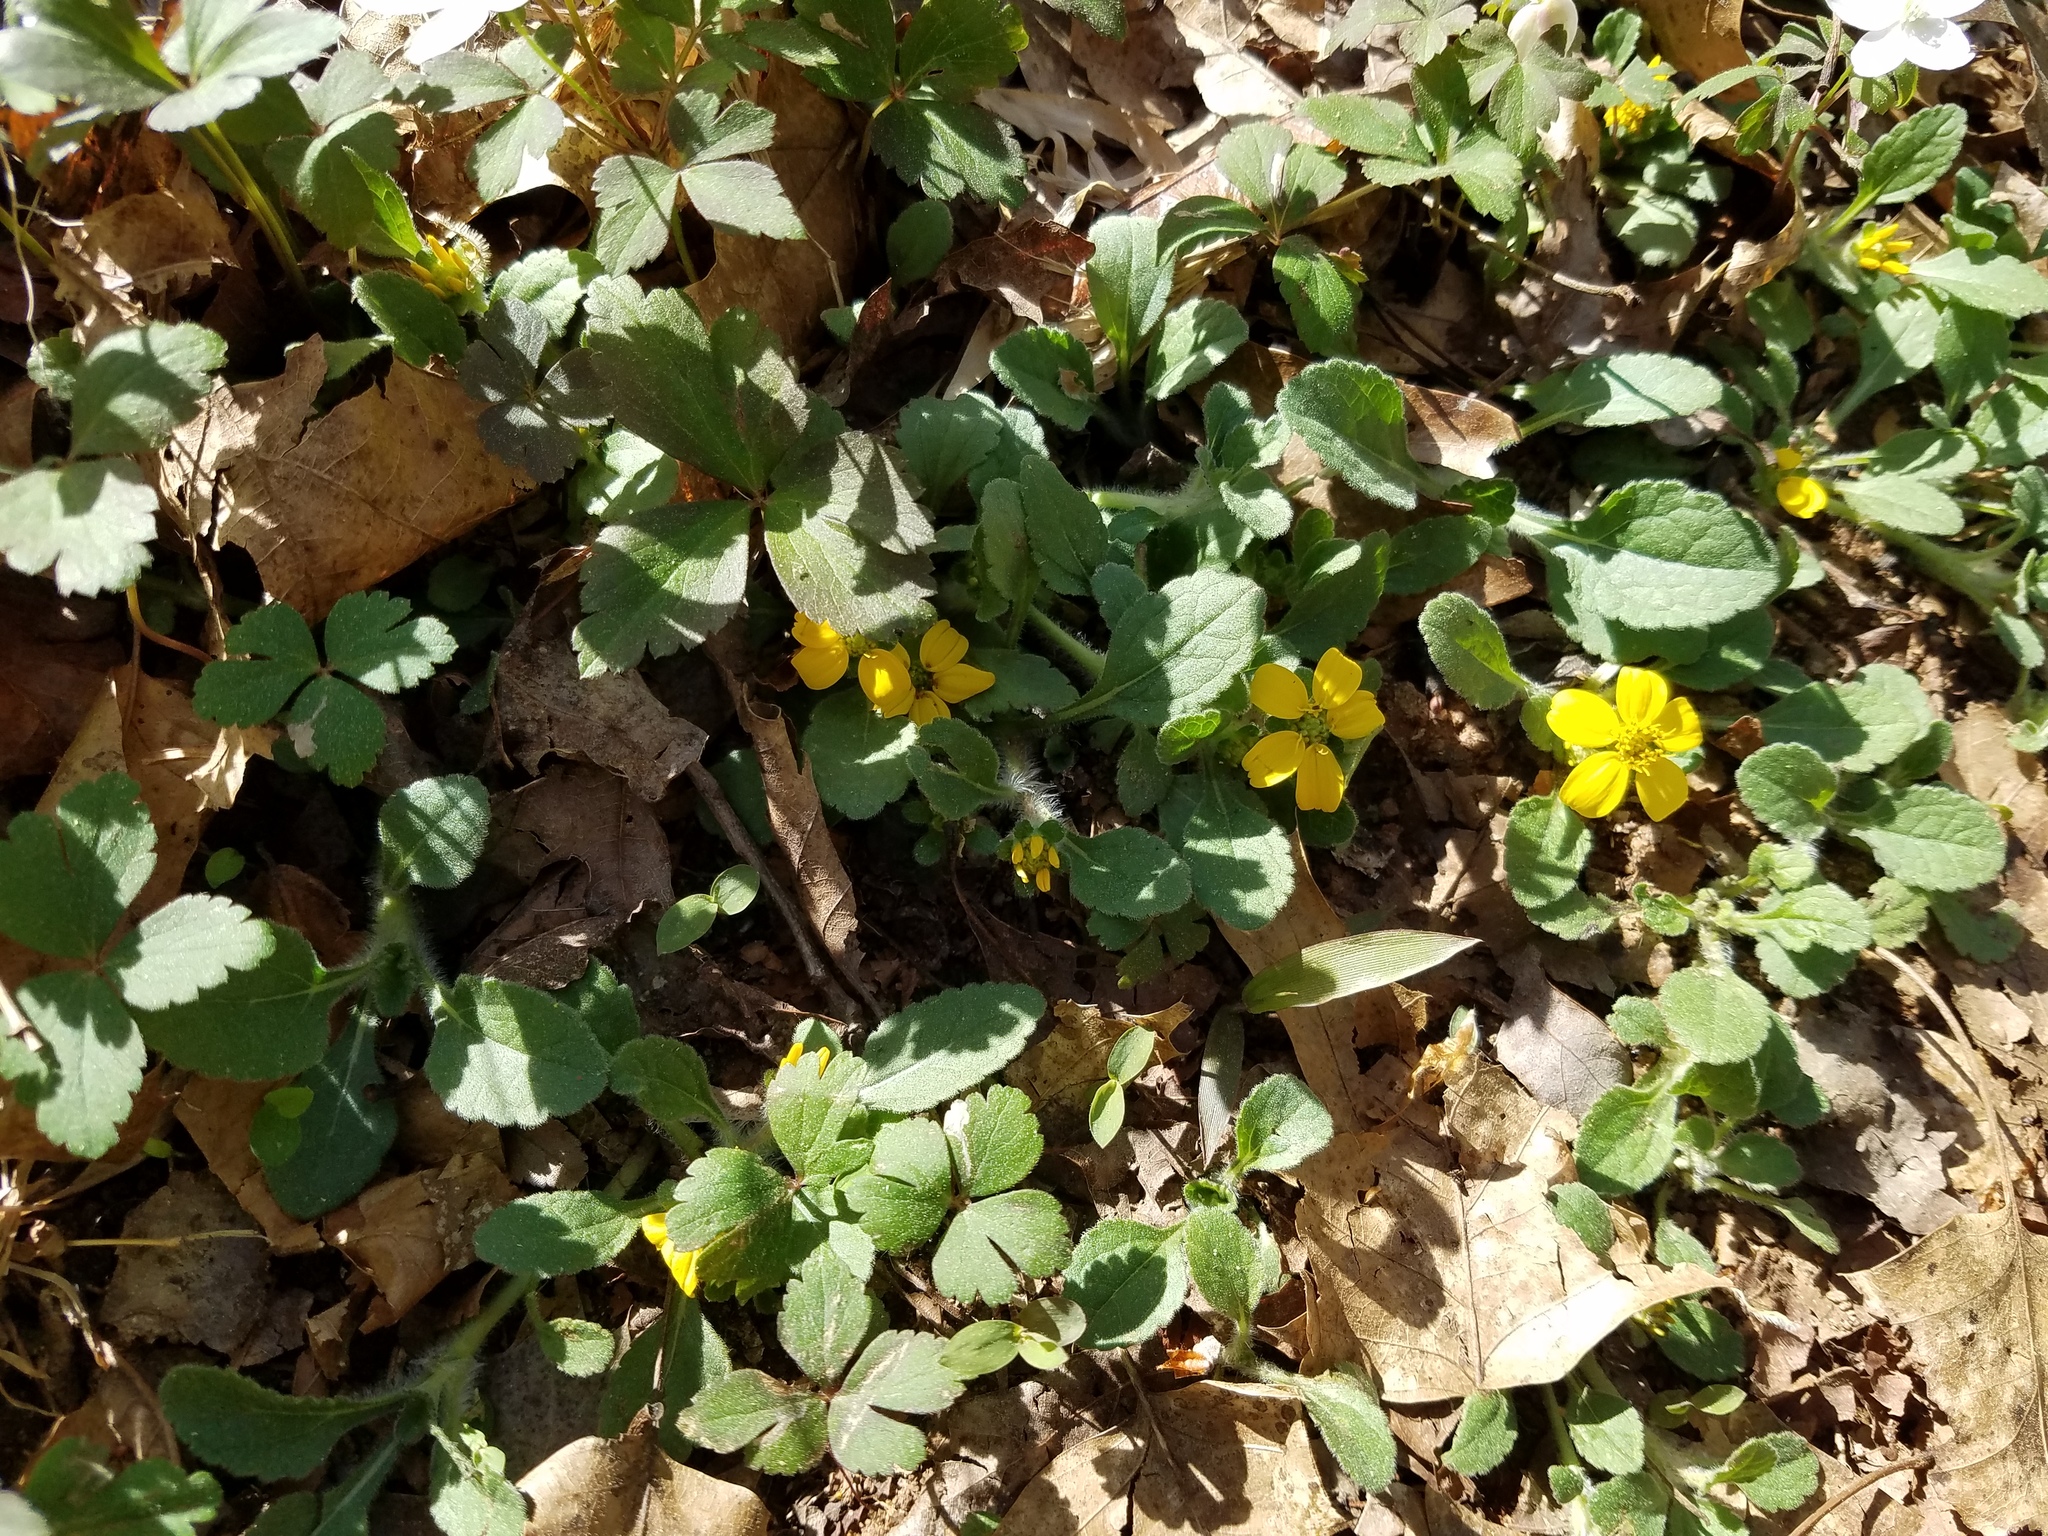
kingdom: Plantae
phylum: Tracheophyta
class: Magnoliopsida
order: Asterales
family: Asteraceae
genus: Chrysogonum
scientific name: Chrysogonum virginianum
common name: Golden-knee
